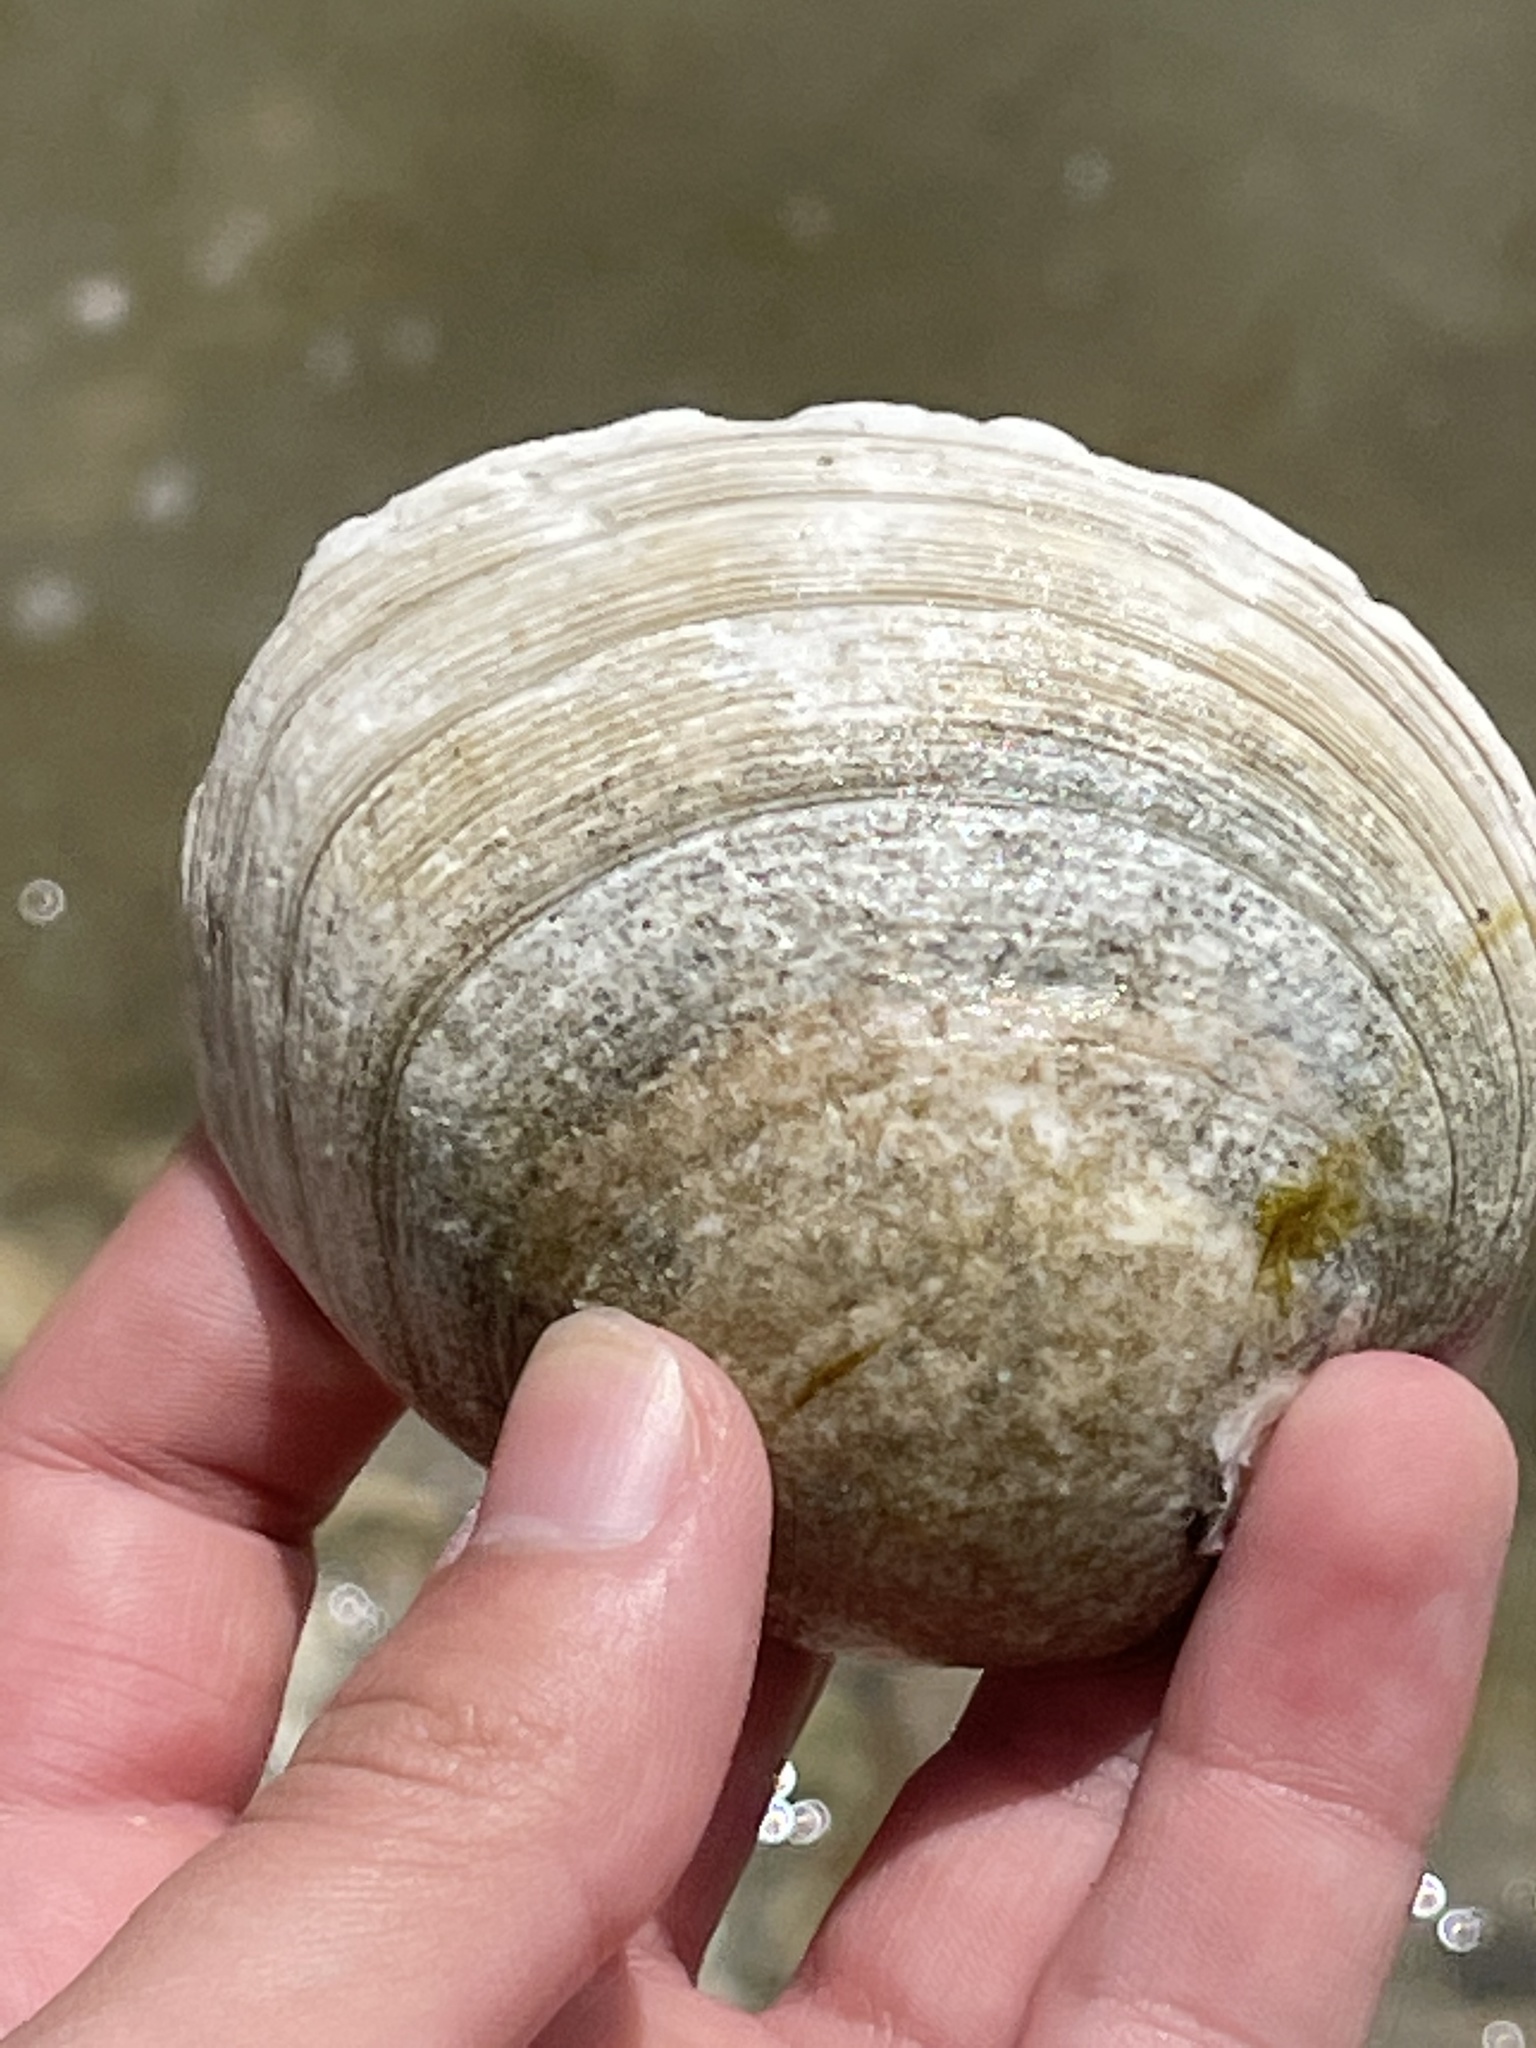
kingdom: Animalia
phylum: Mollusca
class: Bivalvia
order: Venerida
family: Veneridae
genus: Mercenaria
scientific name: Mercenaria campechiensis
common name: Südliche quahog-muschel
